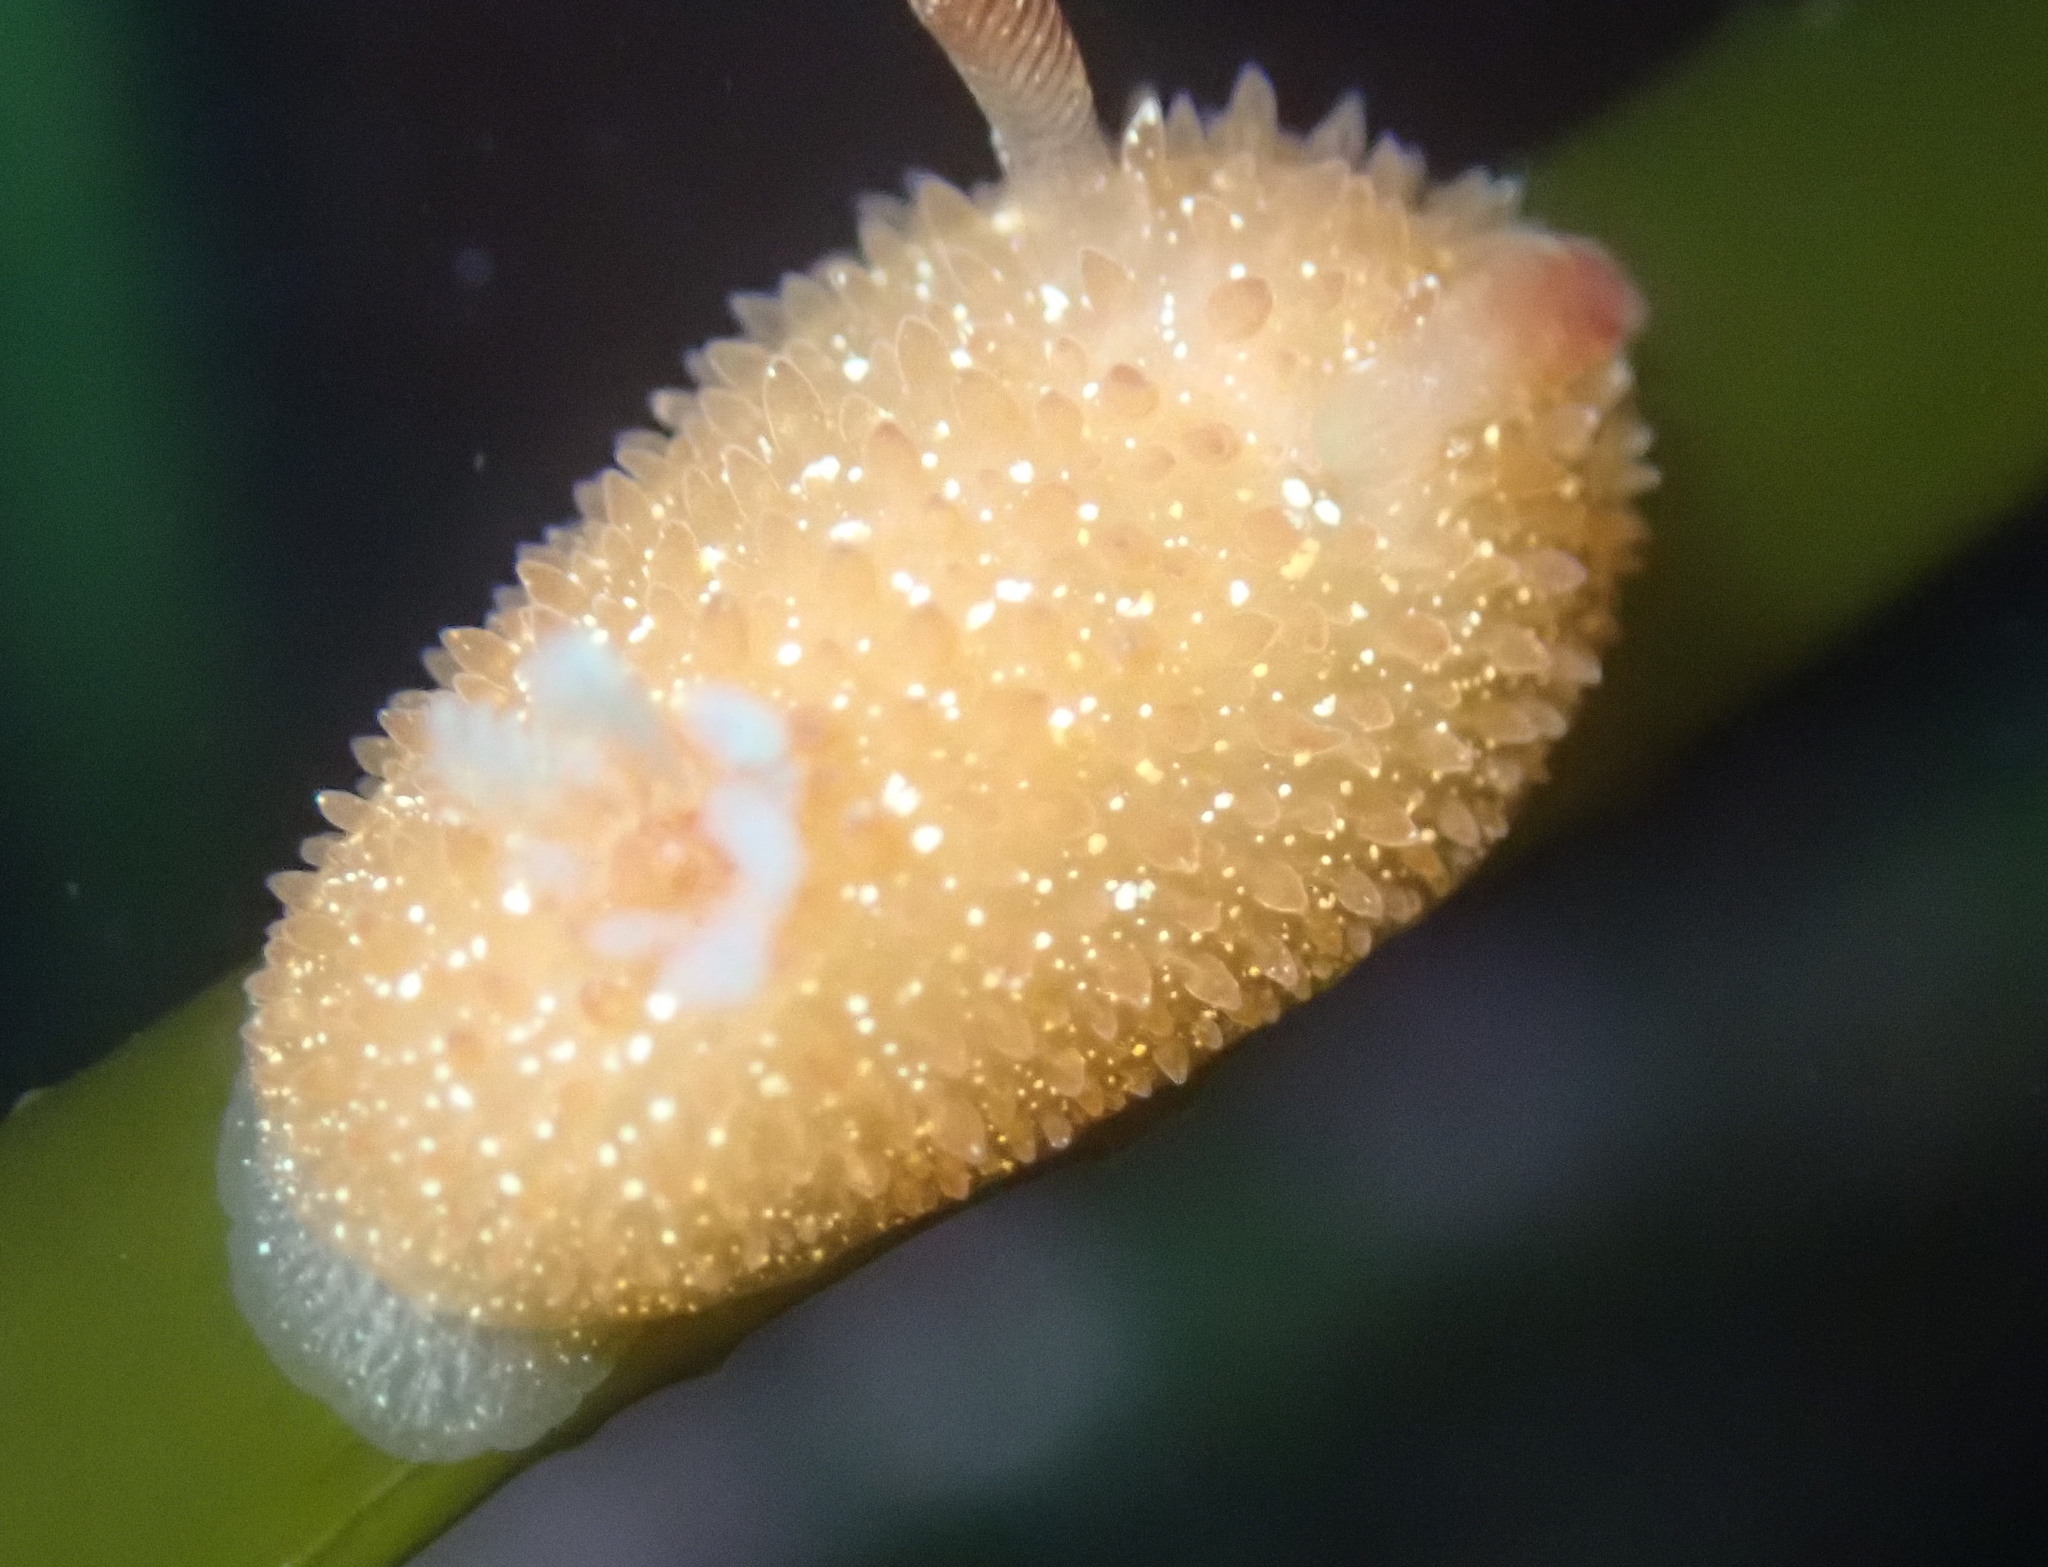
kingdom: Animalia
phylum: Mollusca
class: Gastropoda
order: Nudibranchia
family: Onchidorididae
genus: Acanthodoris
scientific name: Acanthodoris lutea
